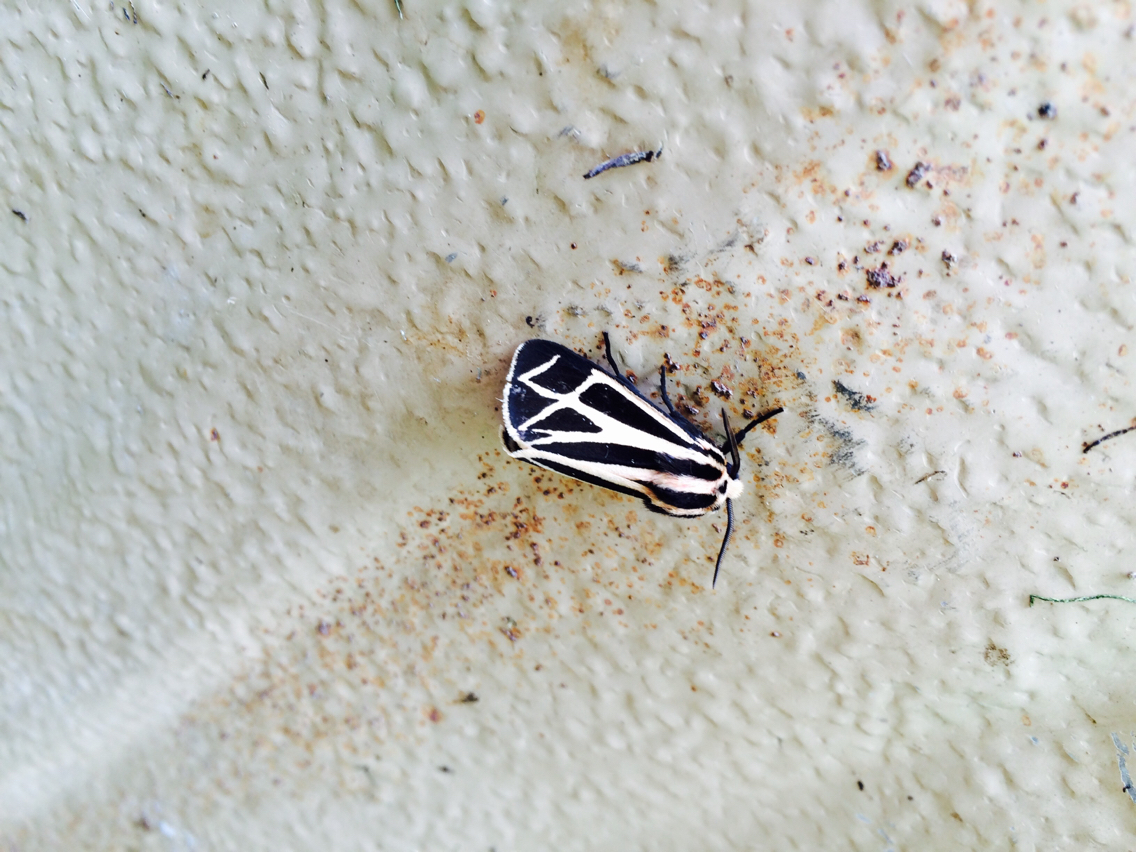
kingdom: Animalia
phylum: Arthropoda
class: Insecta
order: Lepidoptera
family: Erebidae
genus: Apantesis
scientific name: Apantesis phalerata
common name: Harnessed tiger moth
